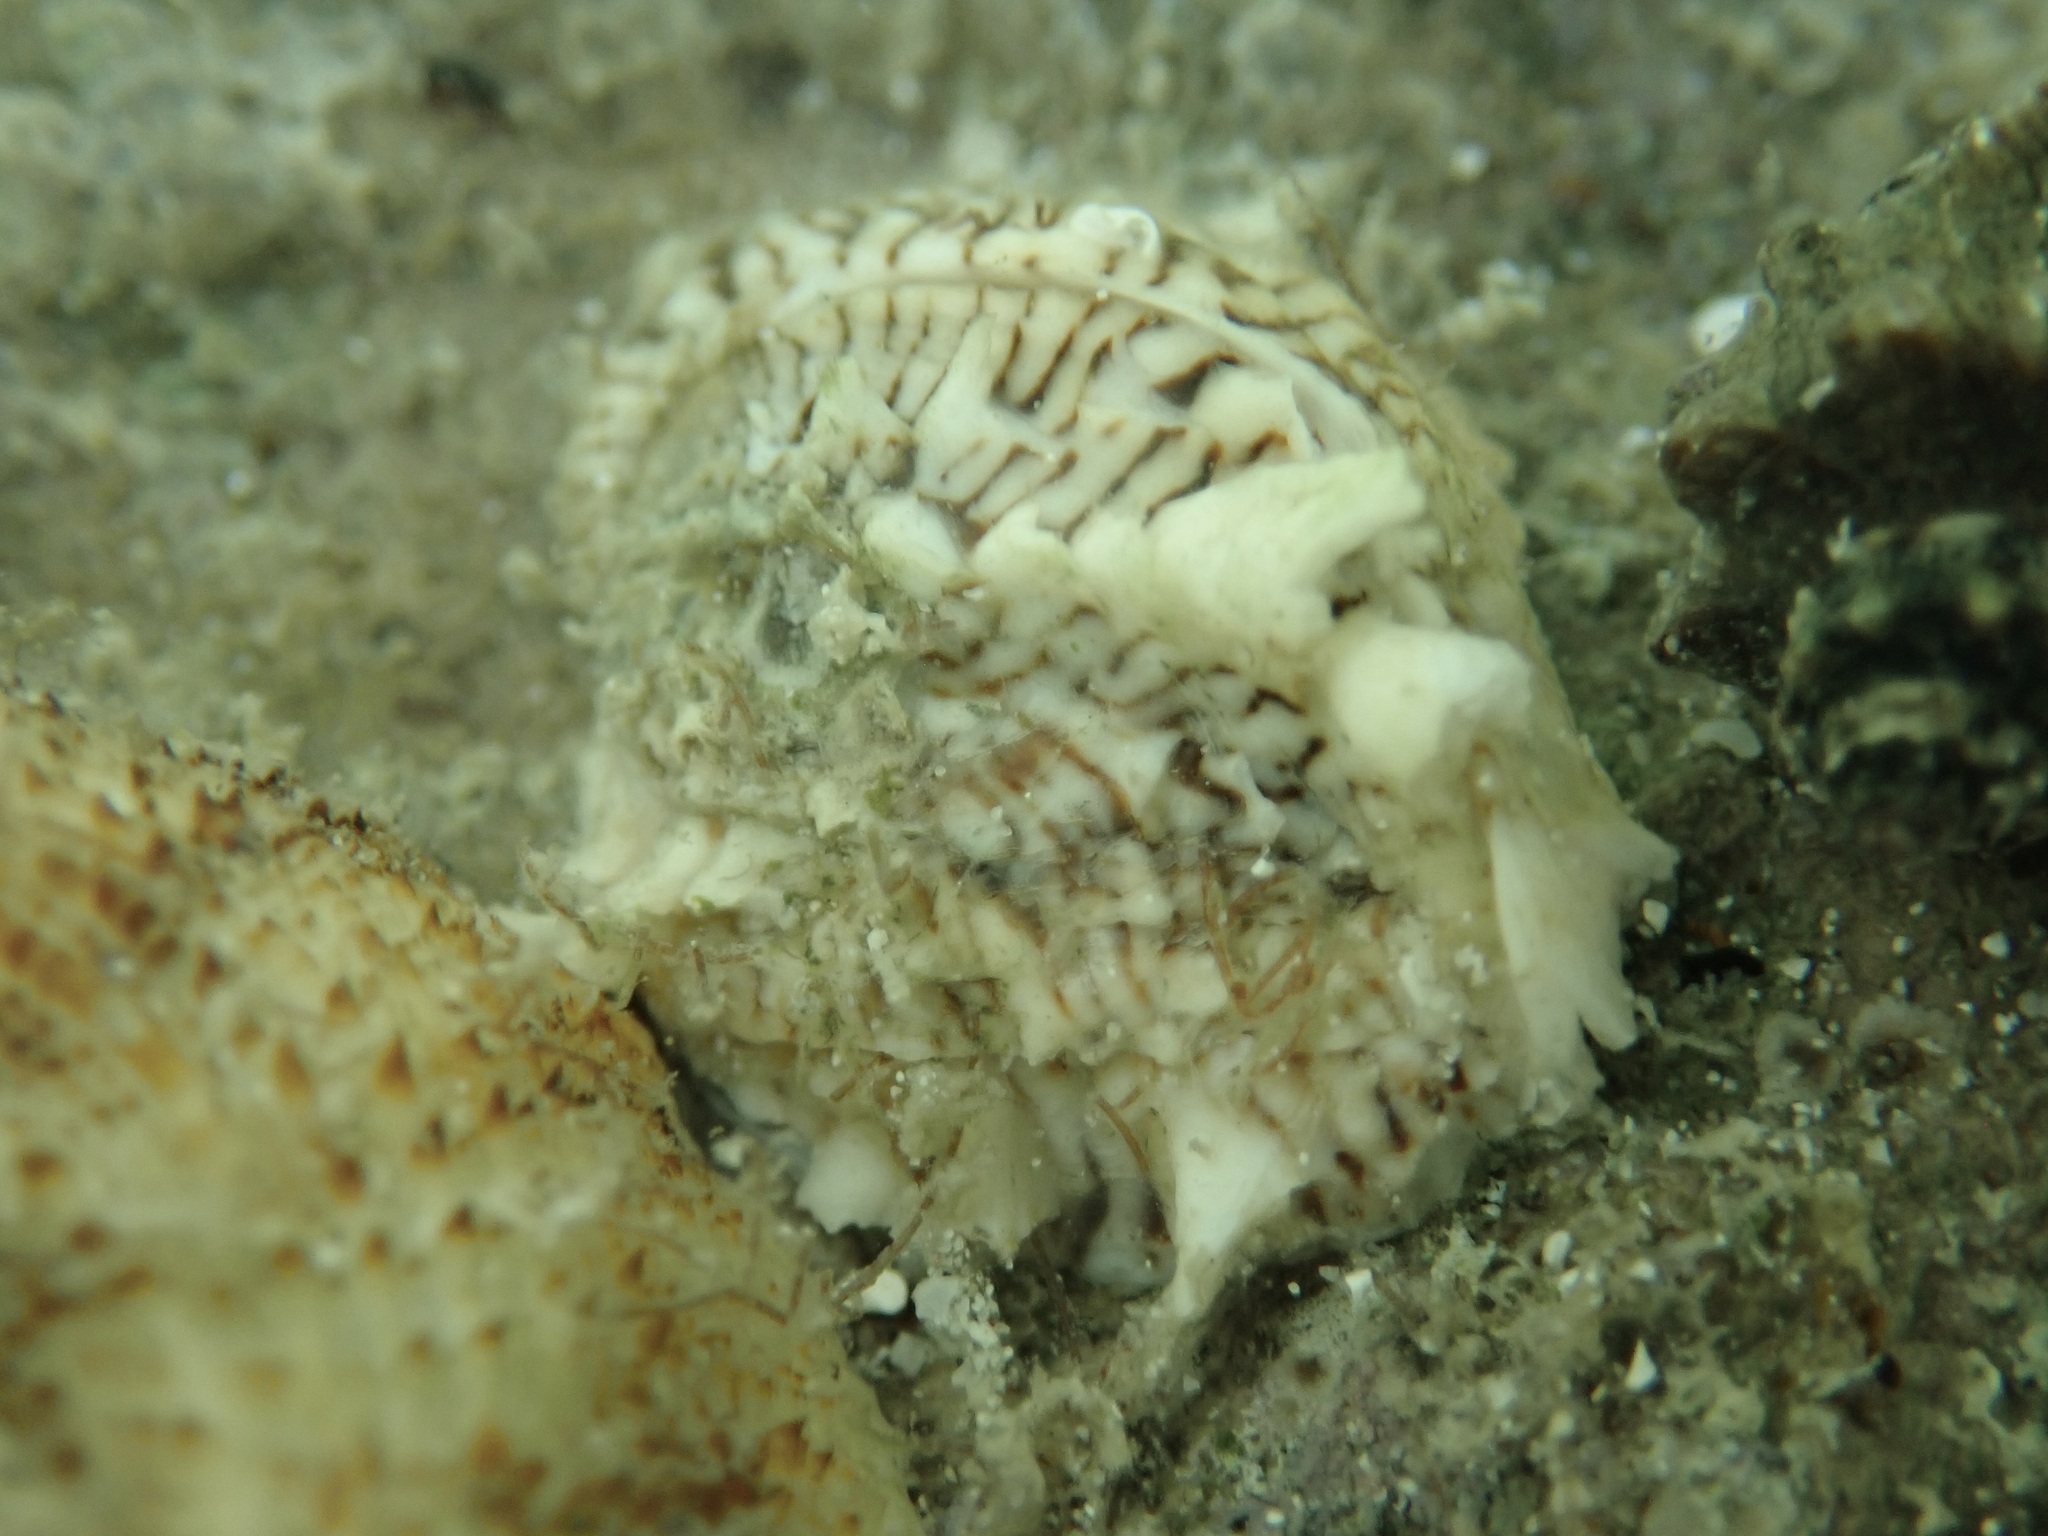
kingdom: Animalia
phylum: Mollusca
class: Bivalvia
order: Venerida
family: Chamidae
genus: Pseudochama
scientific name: Pseudochama picta
